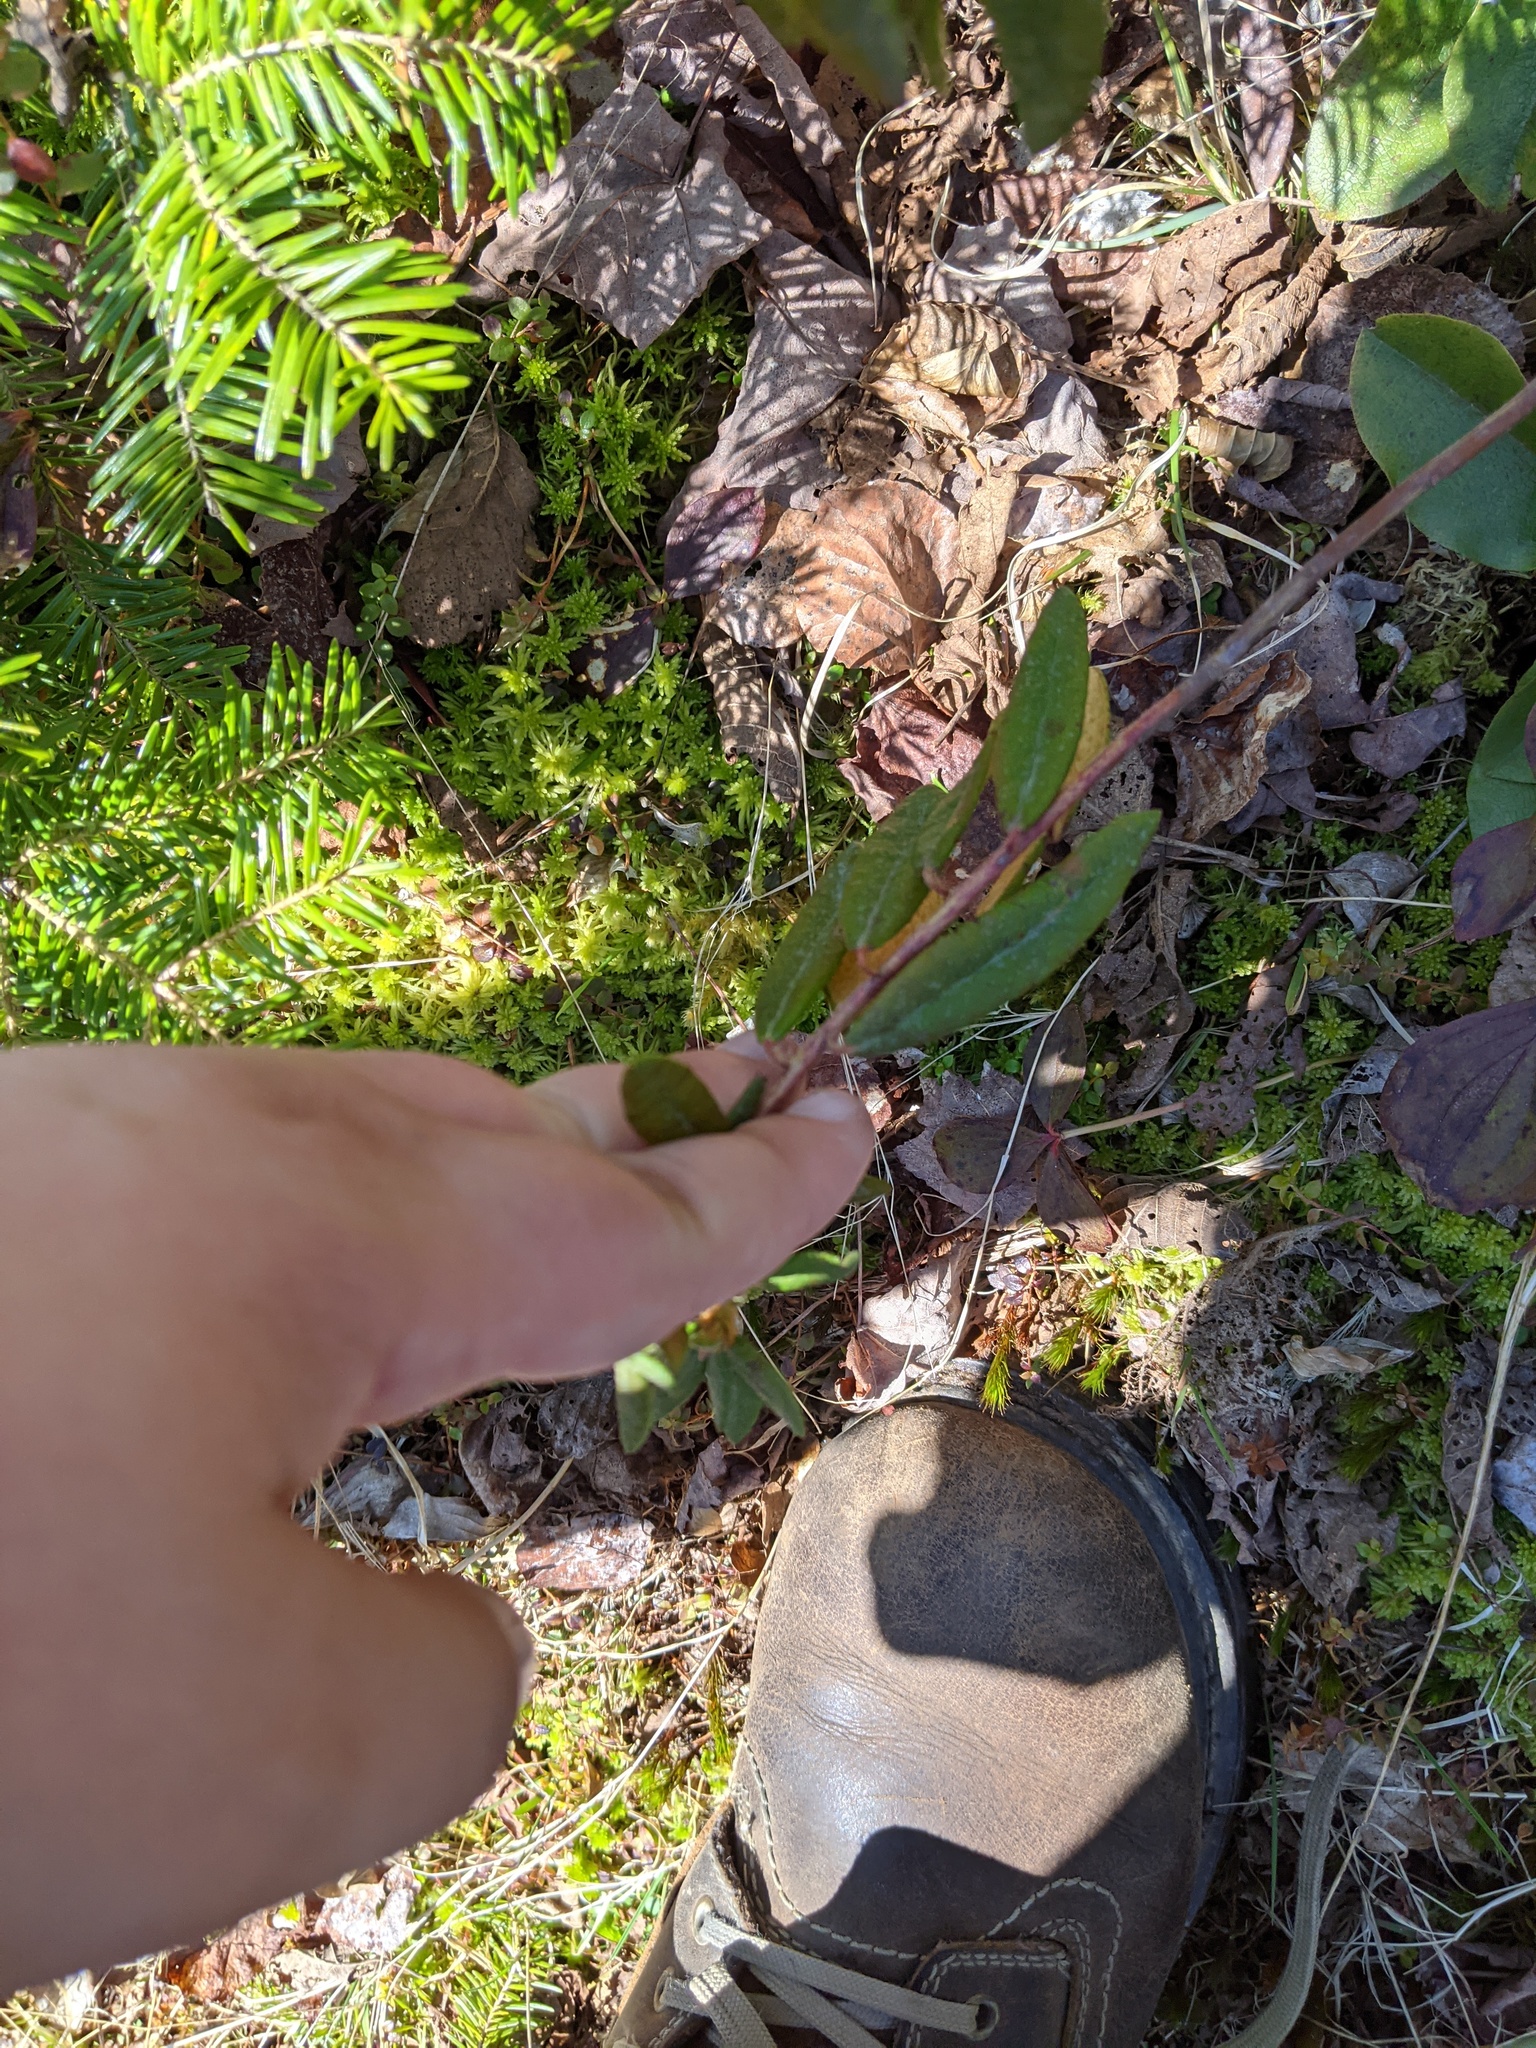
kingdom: Plantae
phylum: Tracheophyta
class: Magnoliopsida
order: Ericales
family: Ericaceae
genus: Rhododendron
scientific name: Rhododendron groenlandicum
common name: Bog labrador tea
